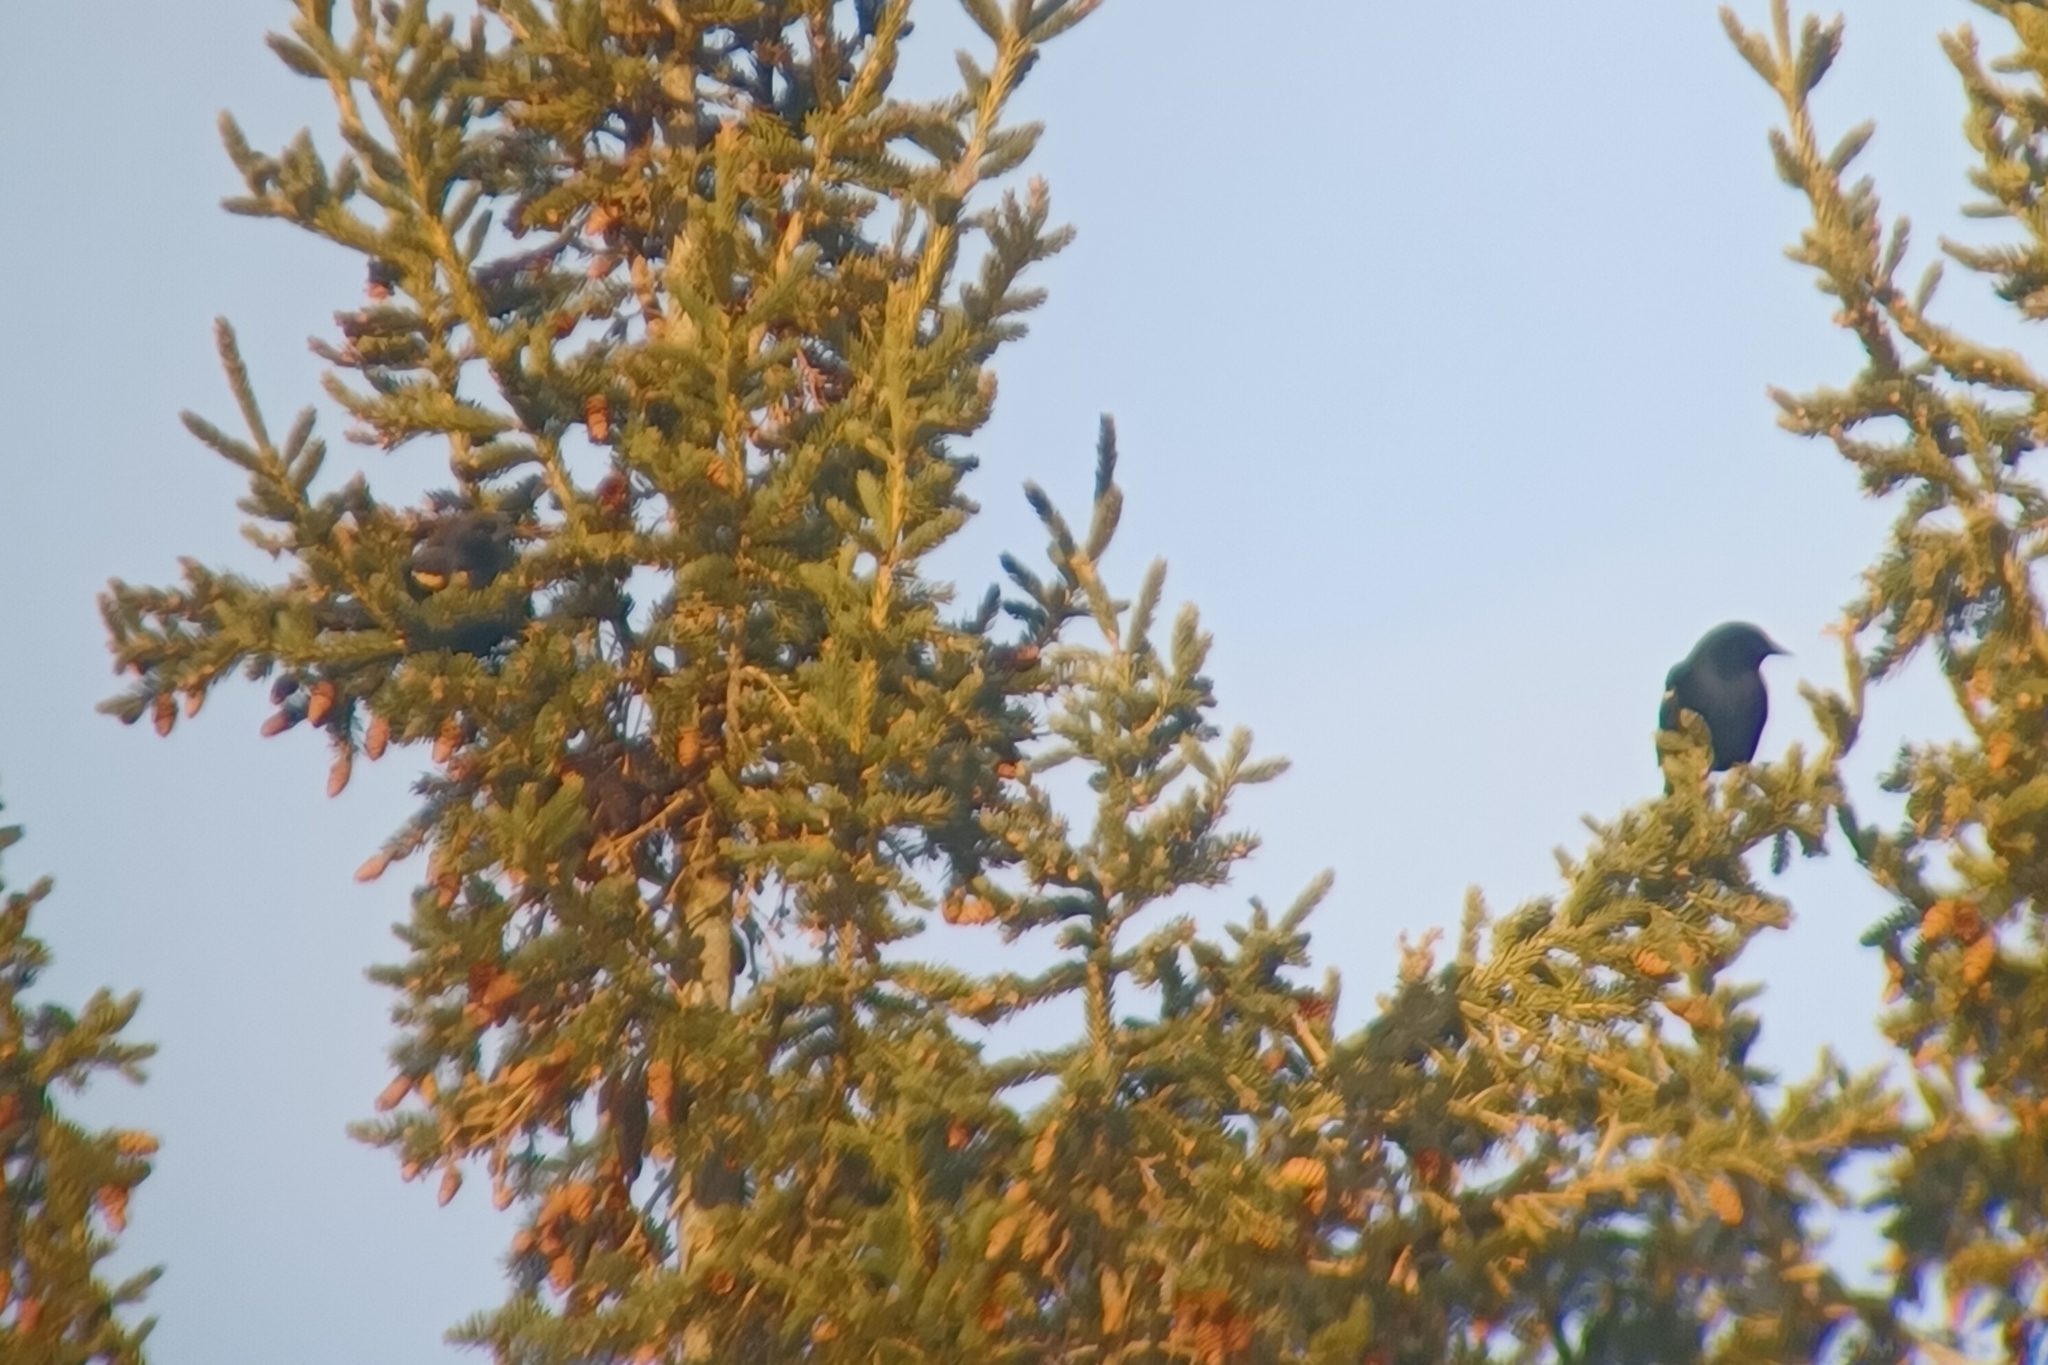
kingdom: Animalia
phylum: Chordata
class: Aves
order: Passeriformes
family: Icteridae
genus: Agelaius
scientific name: Agelaius phoeniceus
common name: Red-winged blackbird
